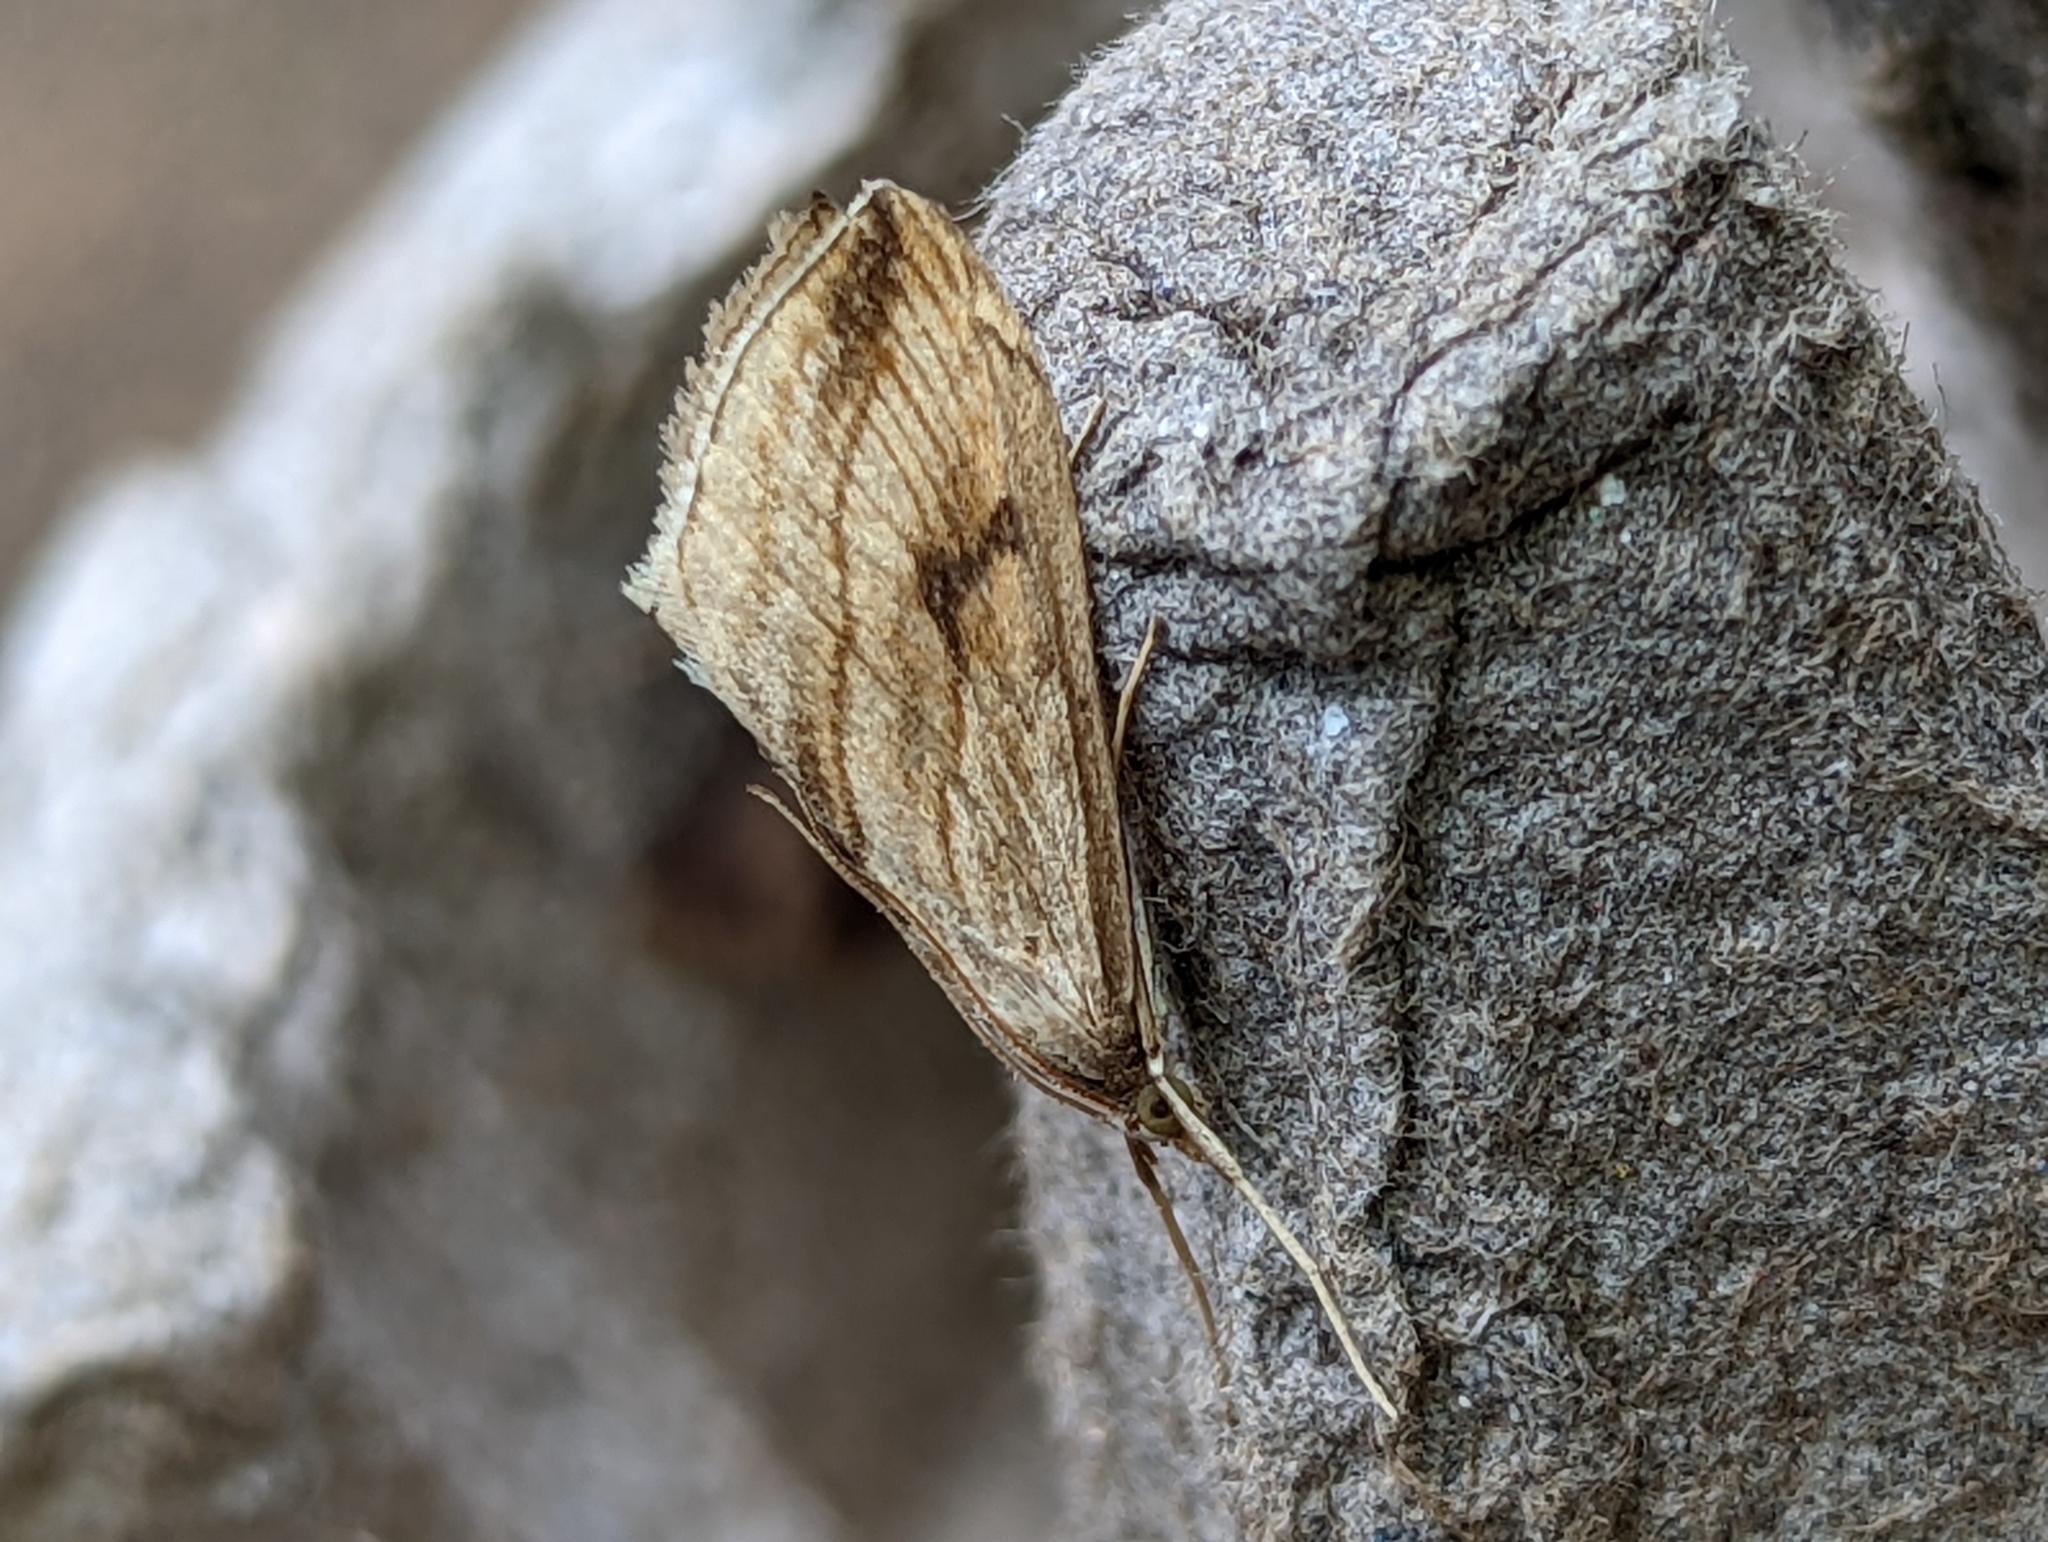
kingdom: Animalia
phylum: Arthropoda
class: Insecta
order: Lepidoptera
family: Crambidae
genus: Evergestis
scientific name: Evergestis forficalis
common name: Garden pebble
